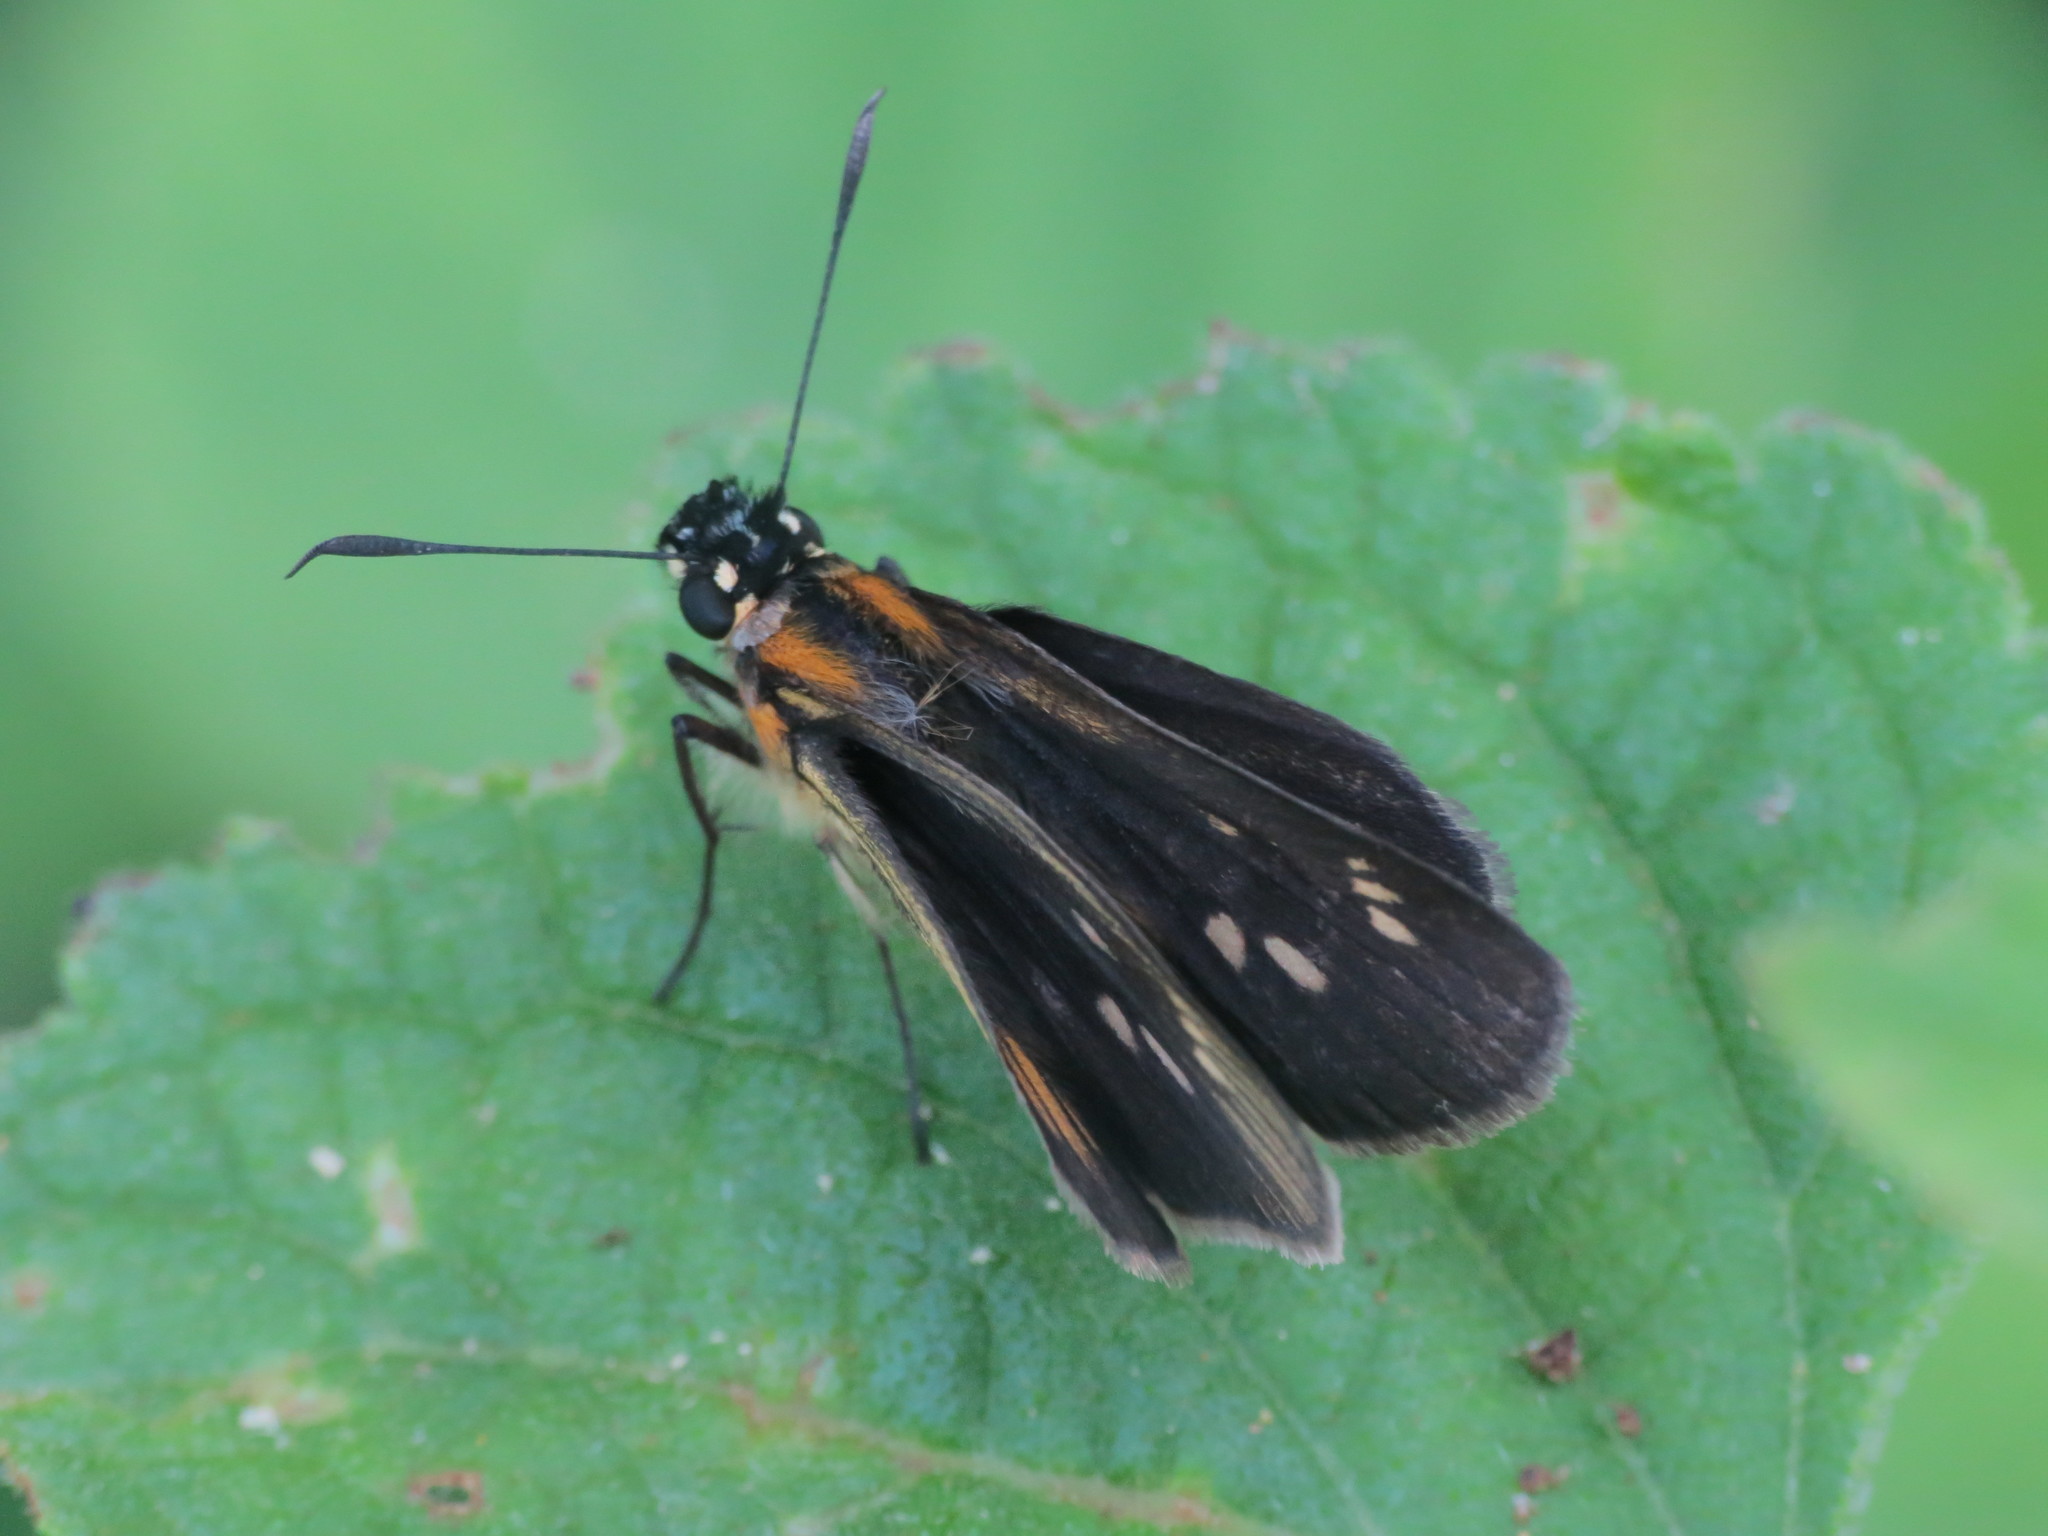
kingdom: Animalia
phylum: Arthropoda
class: Insecta
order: Lepidoptera
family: Hesperiidae
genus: Vehilius
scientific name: Vehilius clavicula
